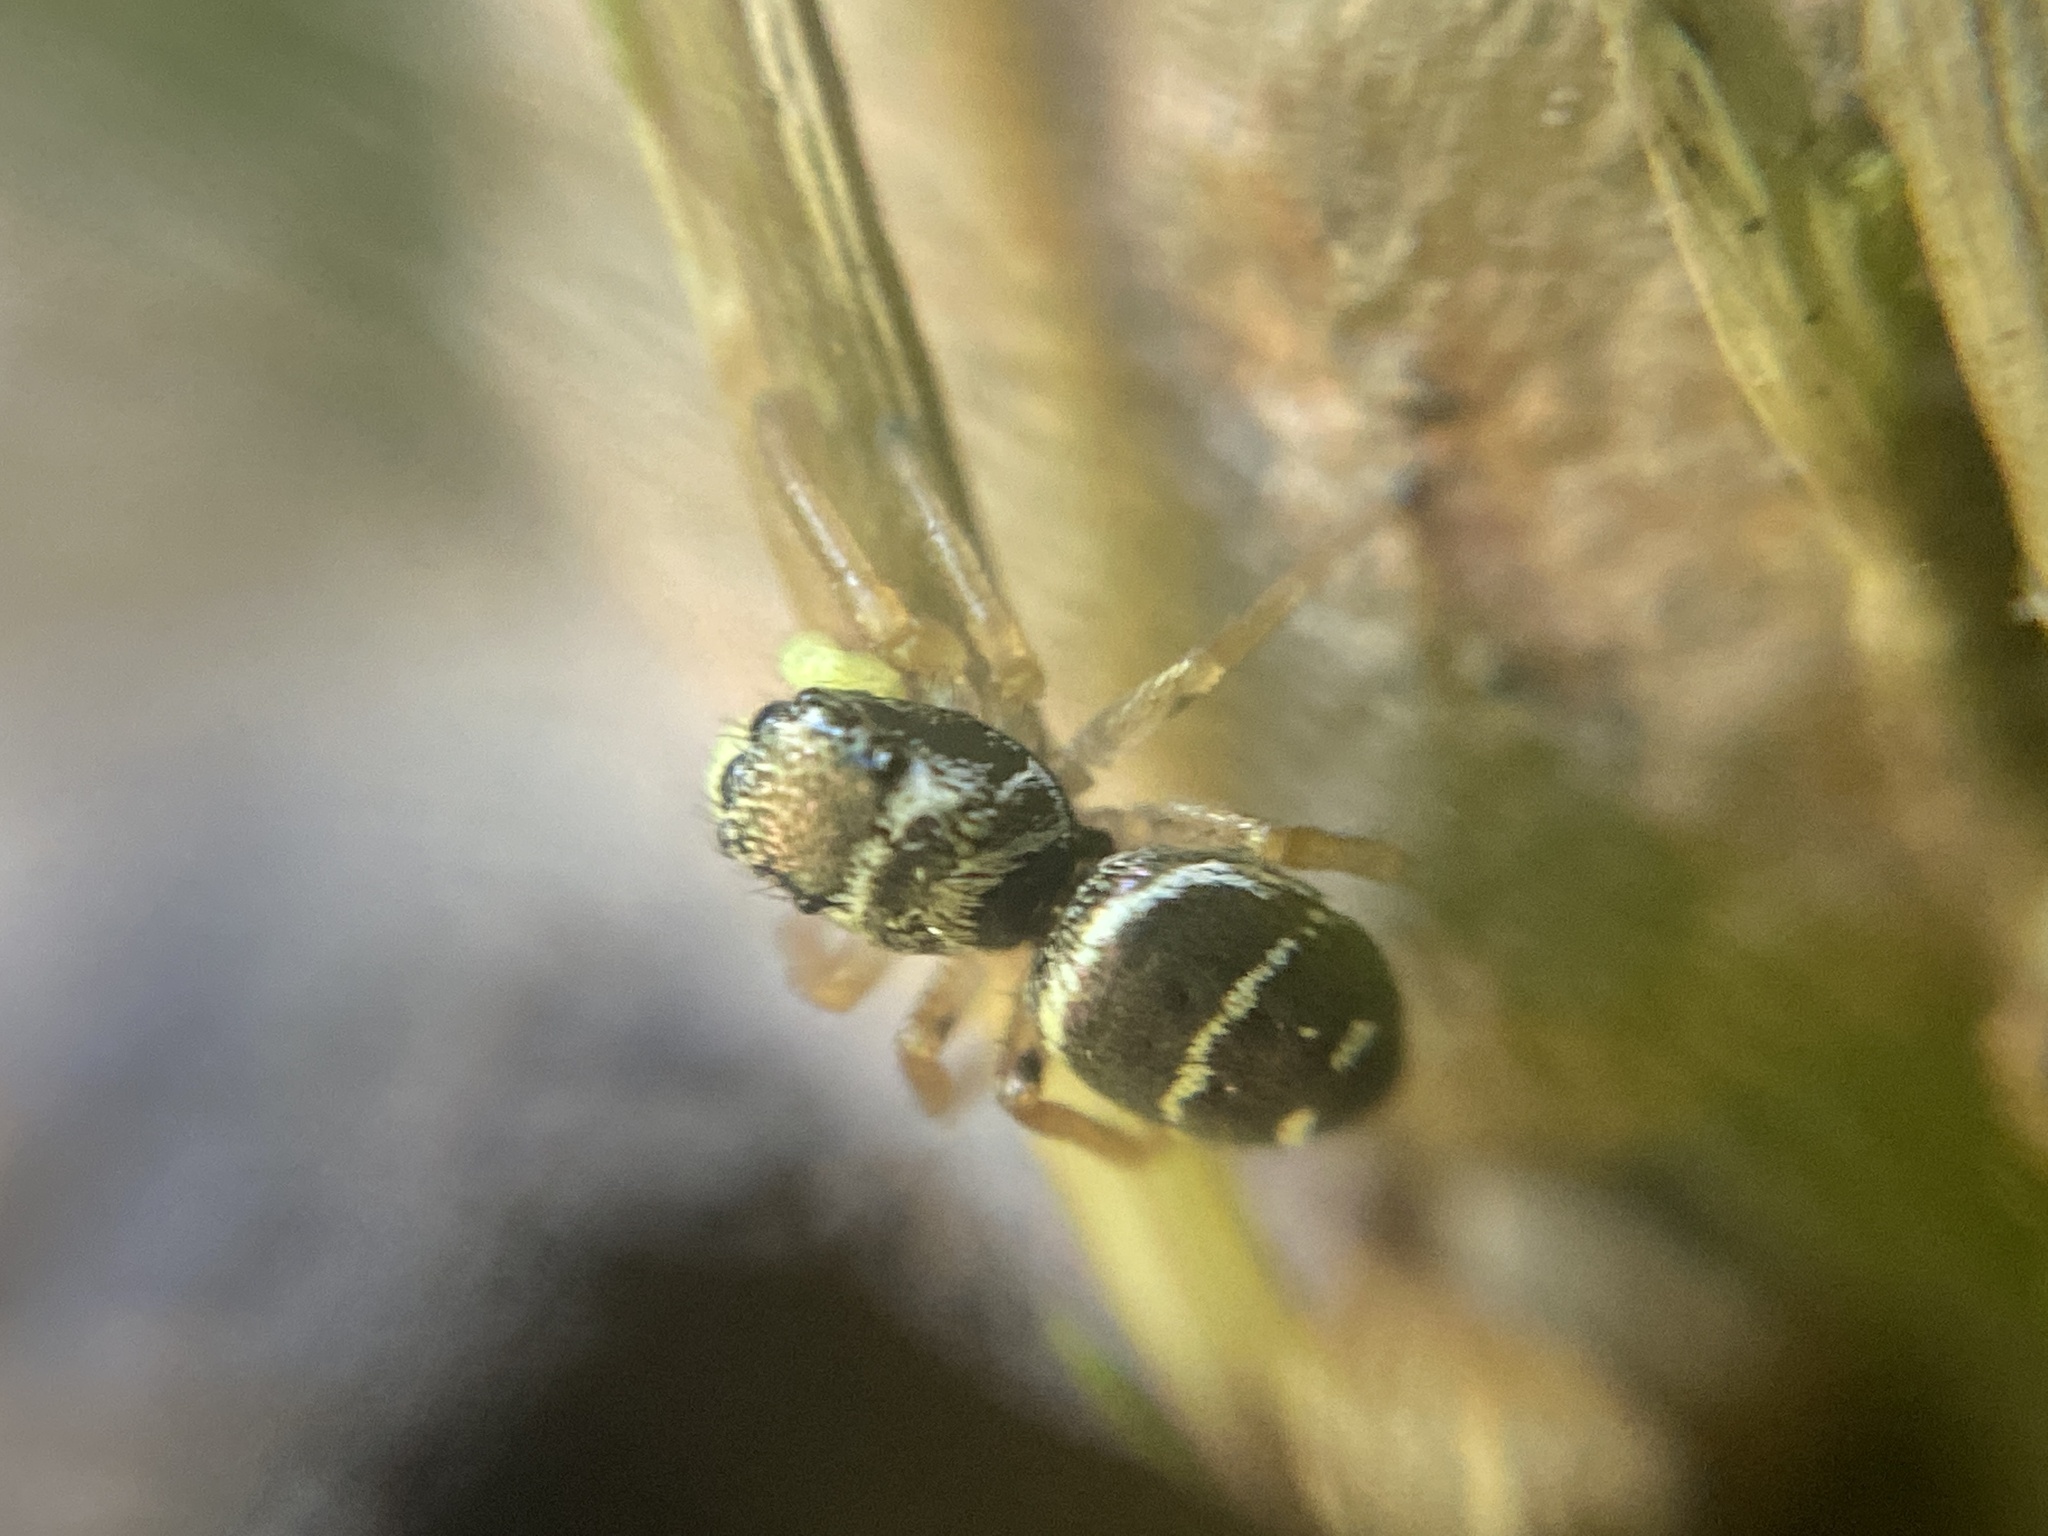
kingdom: Animalia
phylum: Arthropoda
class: Arachnida
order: Araneae
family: Salticidae
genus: Heliophanus
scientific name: Heliophanus cupreus
